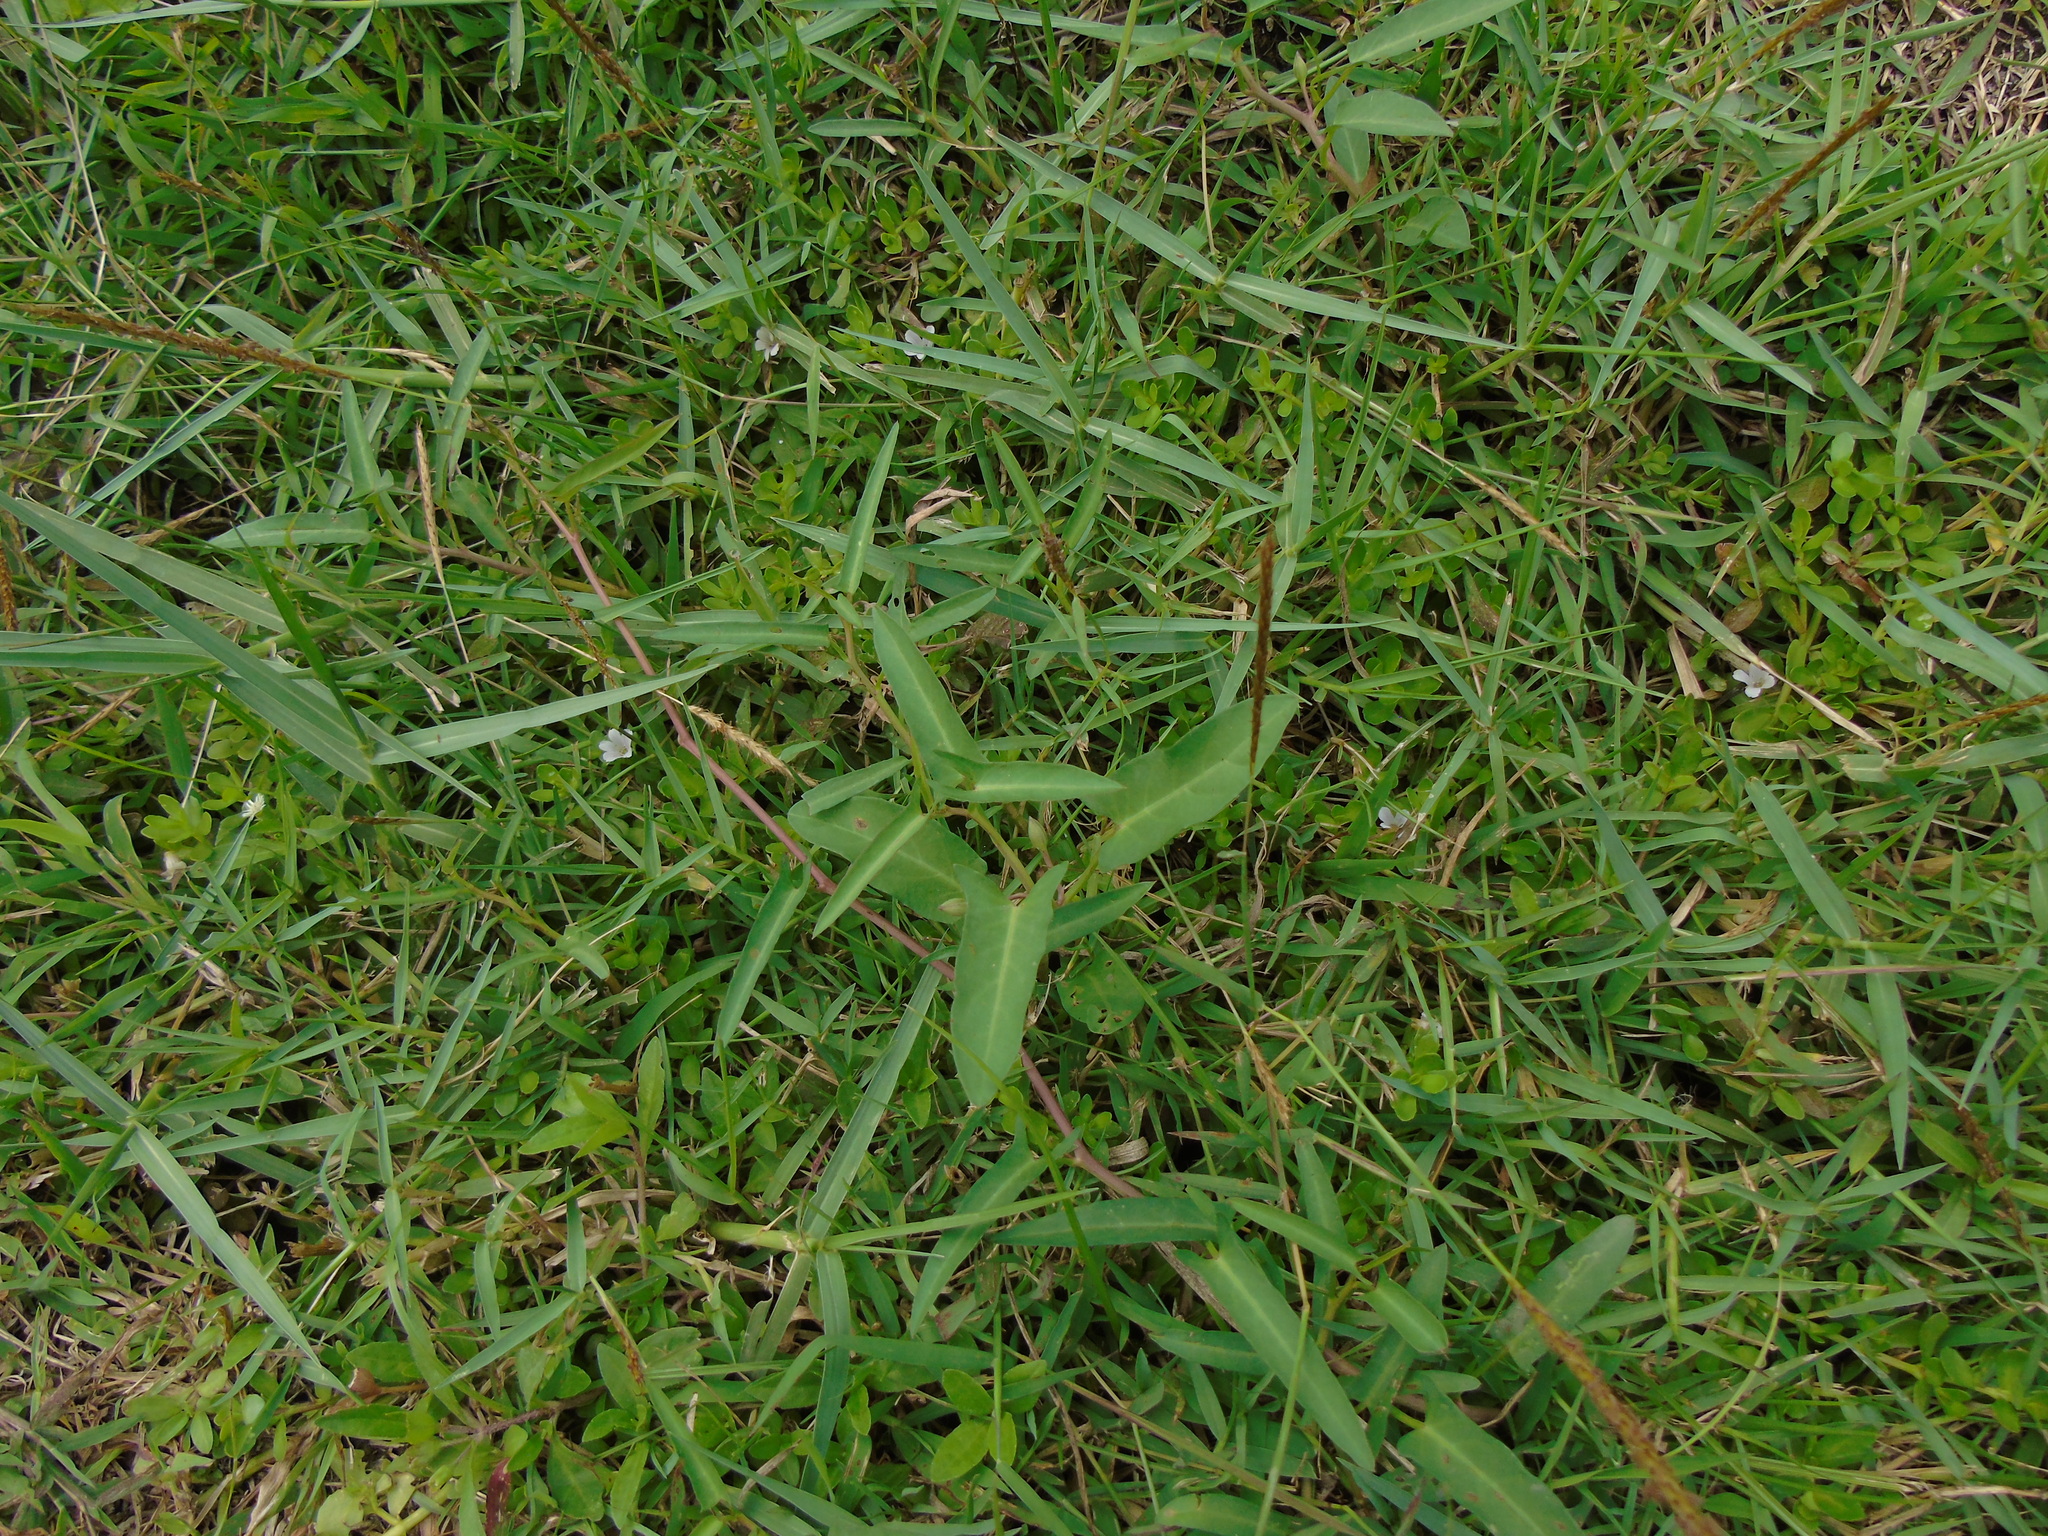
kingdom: Plantae
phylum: Tracheophyta
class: Magnoliopsida
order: Solanales
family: Convolvulaceae
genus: Ipomoea
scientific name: Ipomoea aquatica
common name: Swamp morning-glory
